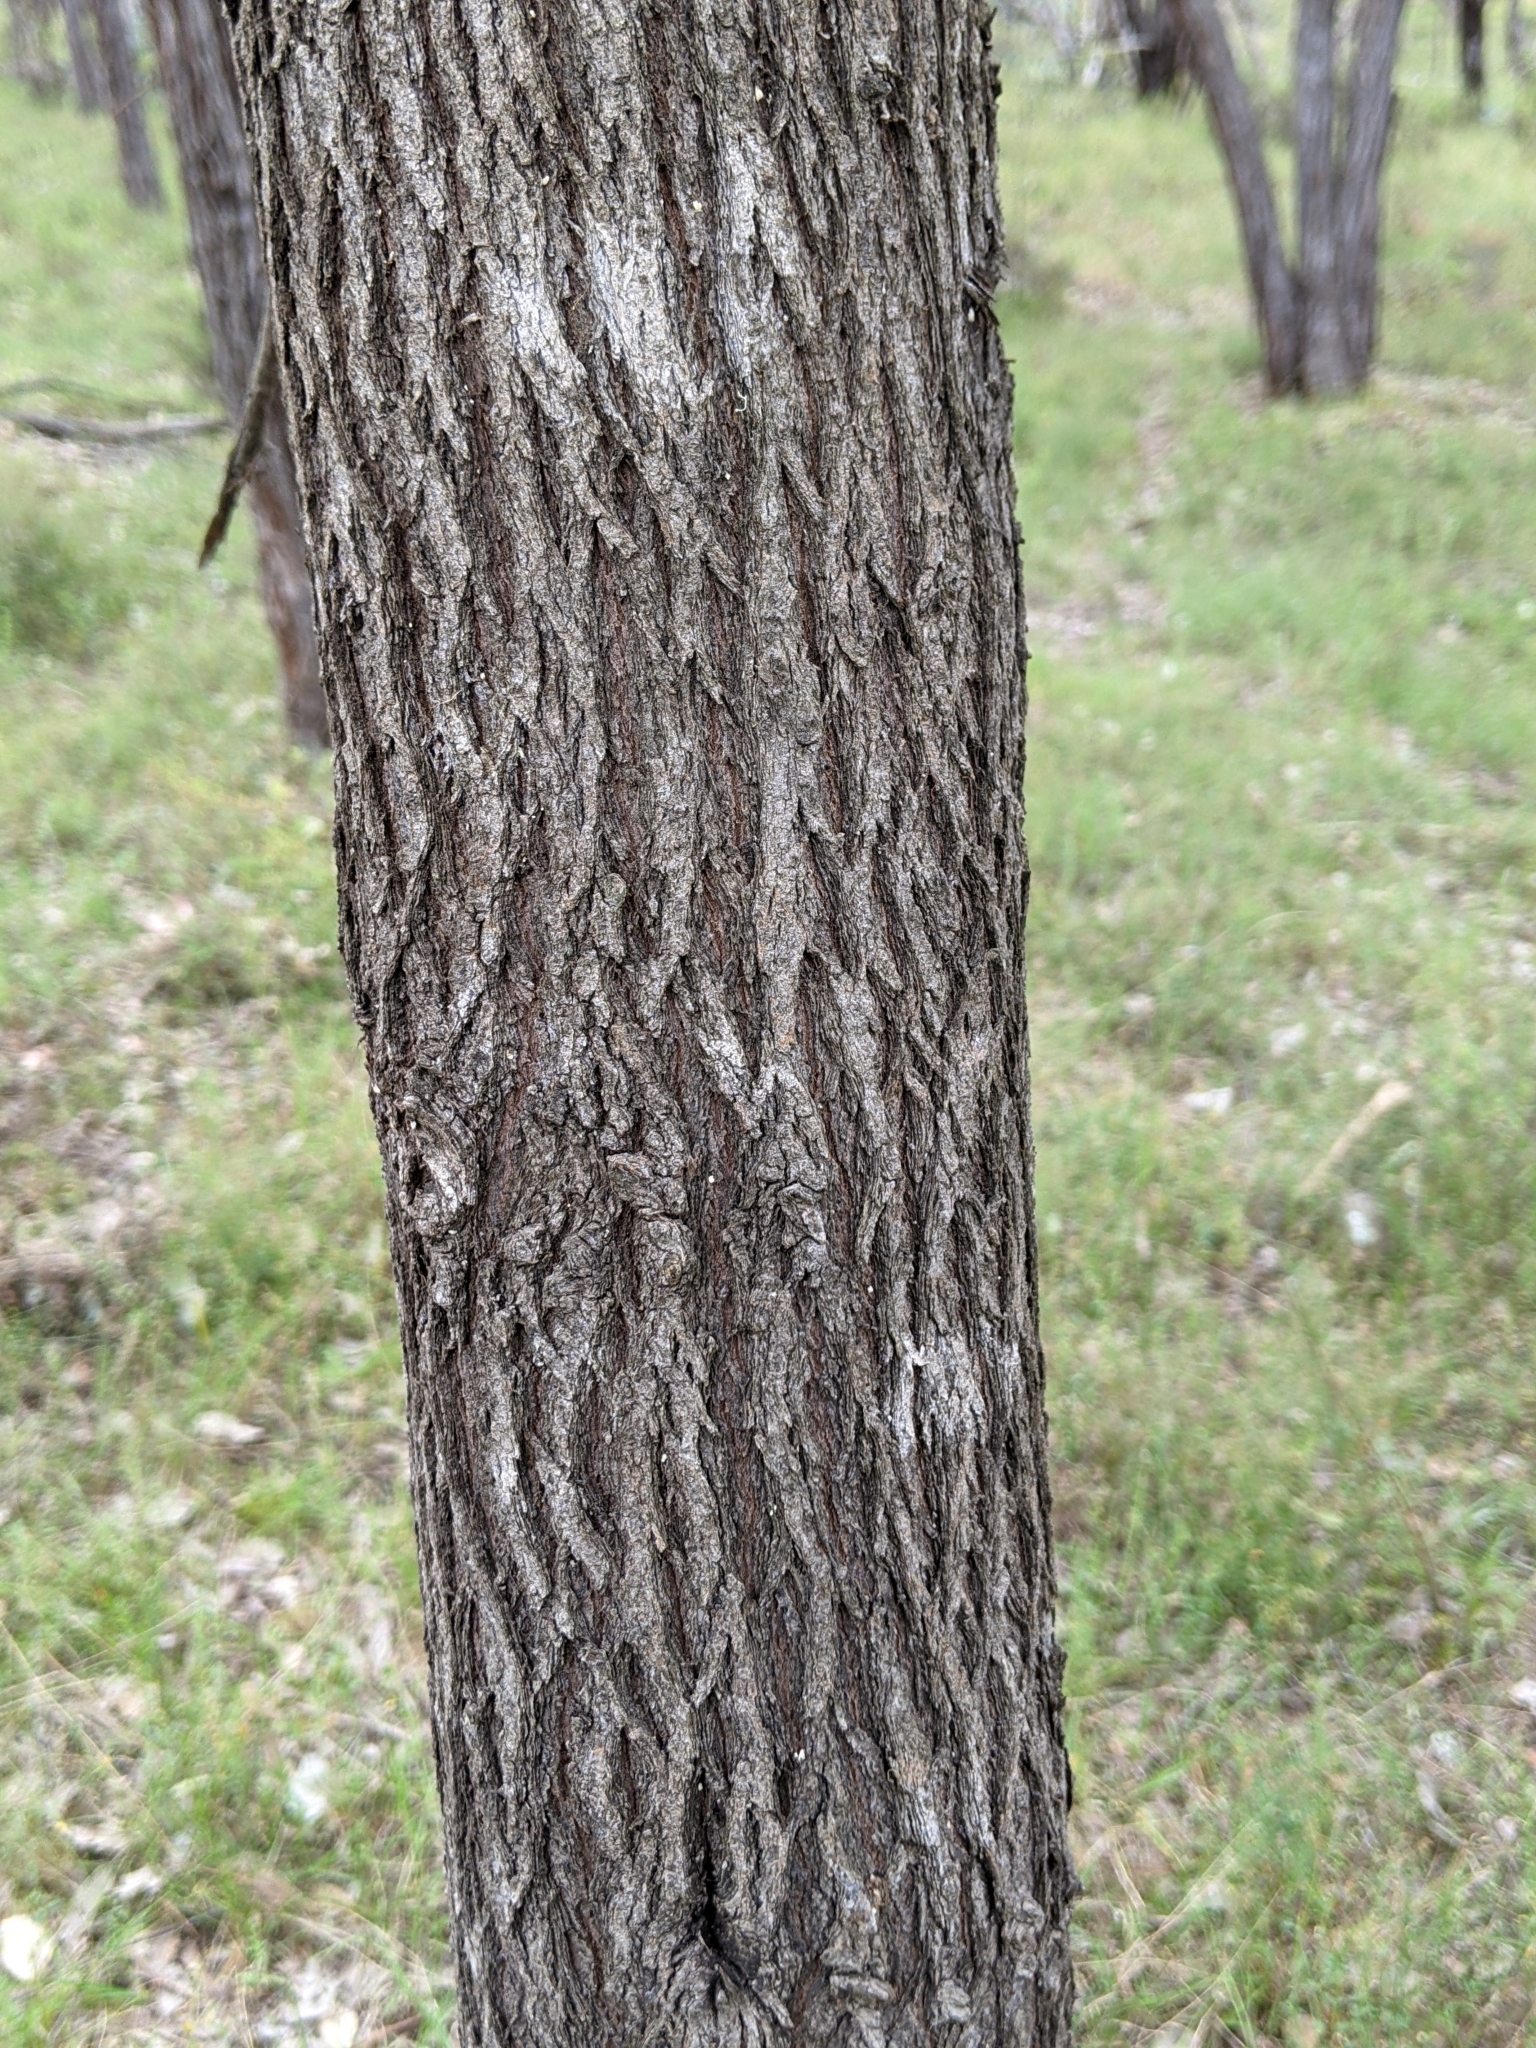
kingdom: Plantae
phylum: Tracheophyta
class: Pinopsida
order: Pinales
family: Cupressaceae
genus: Callitris
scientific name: Callitris columellaris
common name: White cypress-pine
